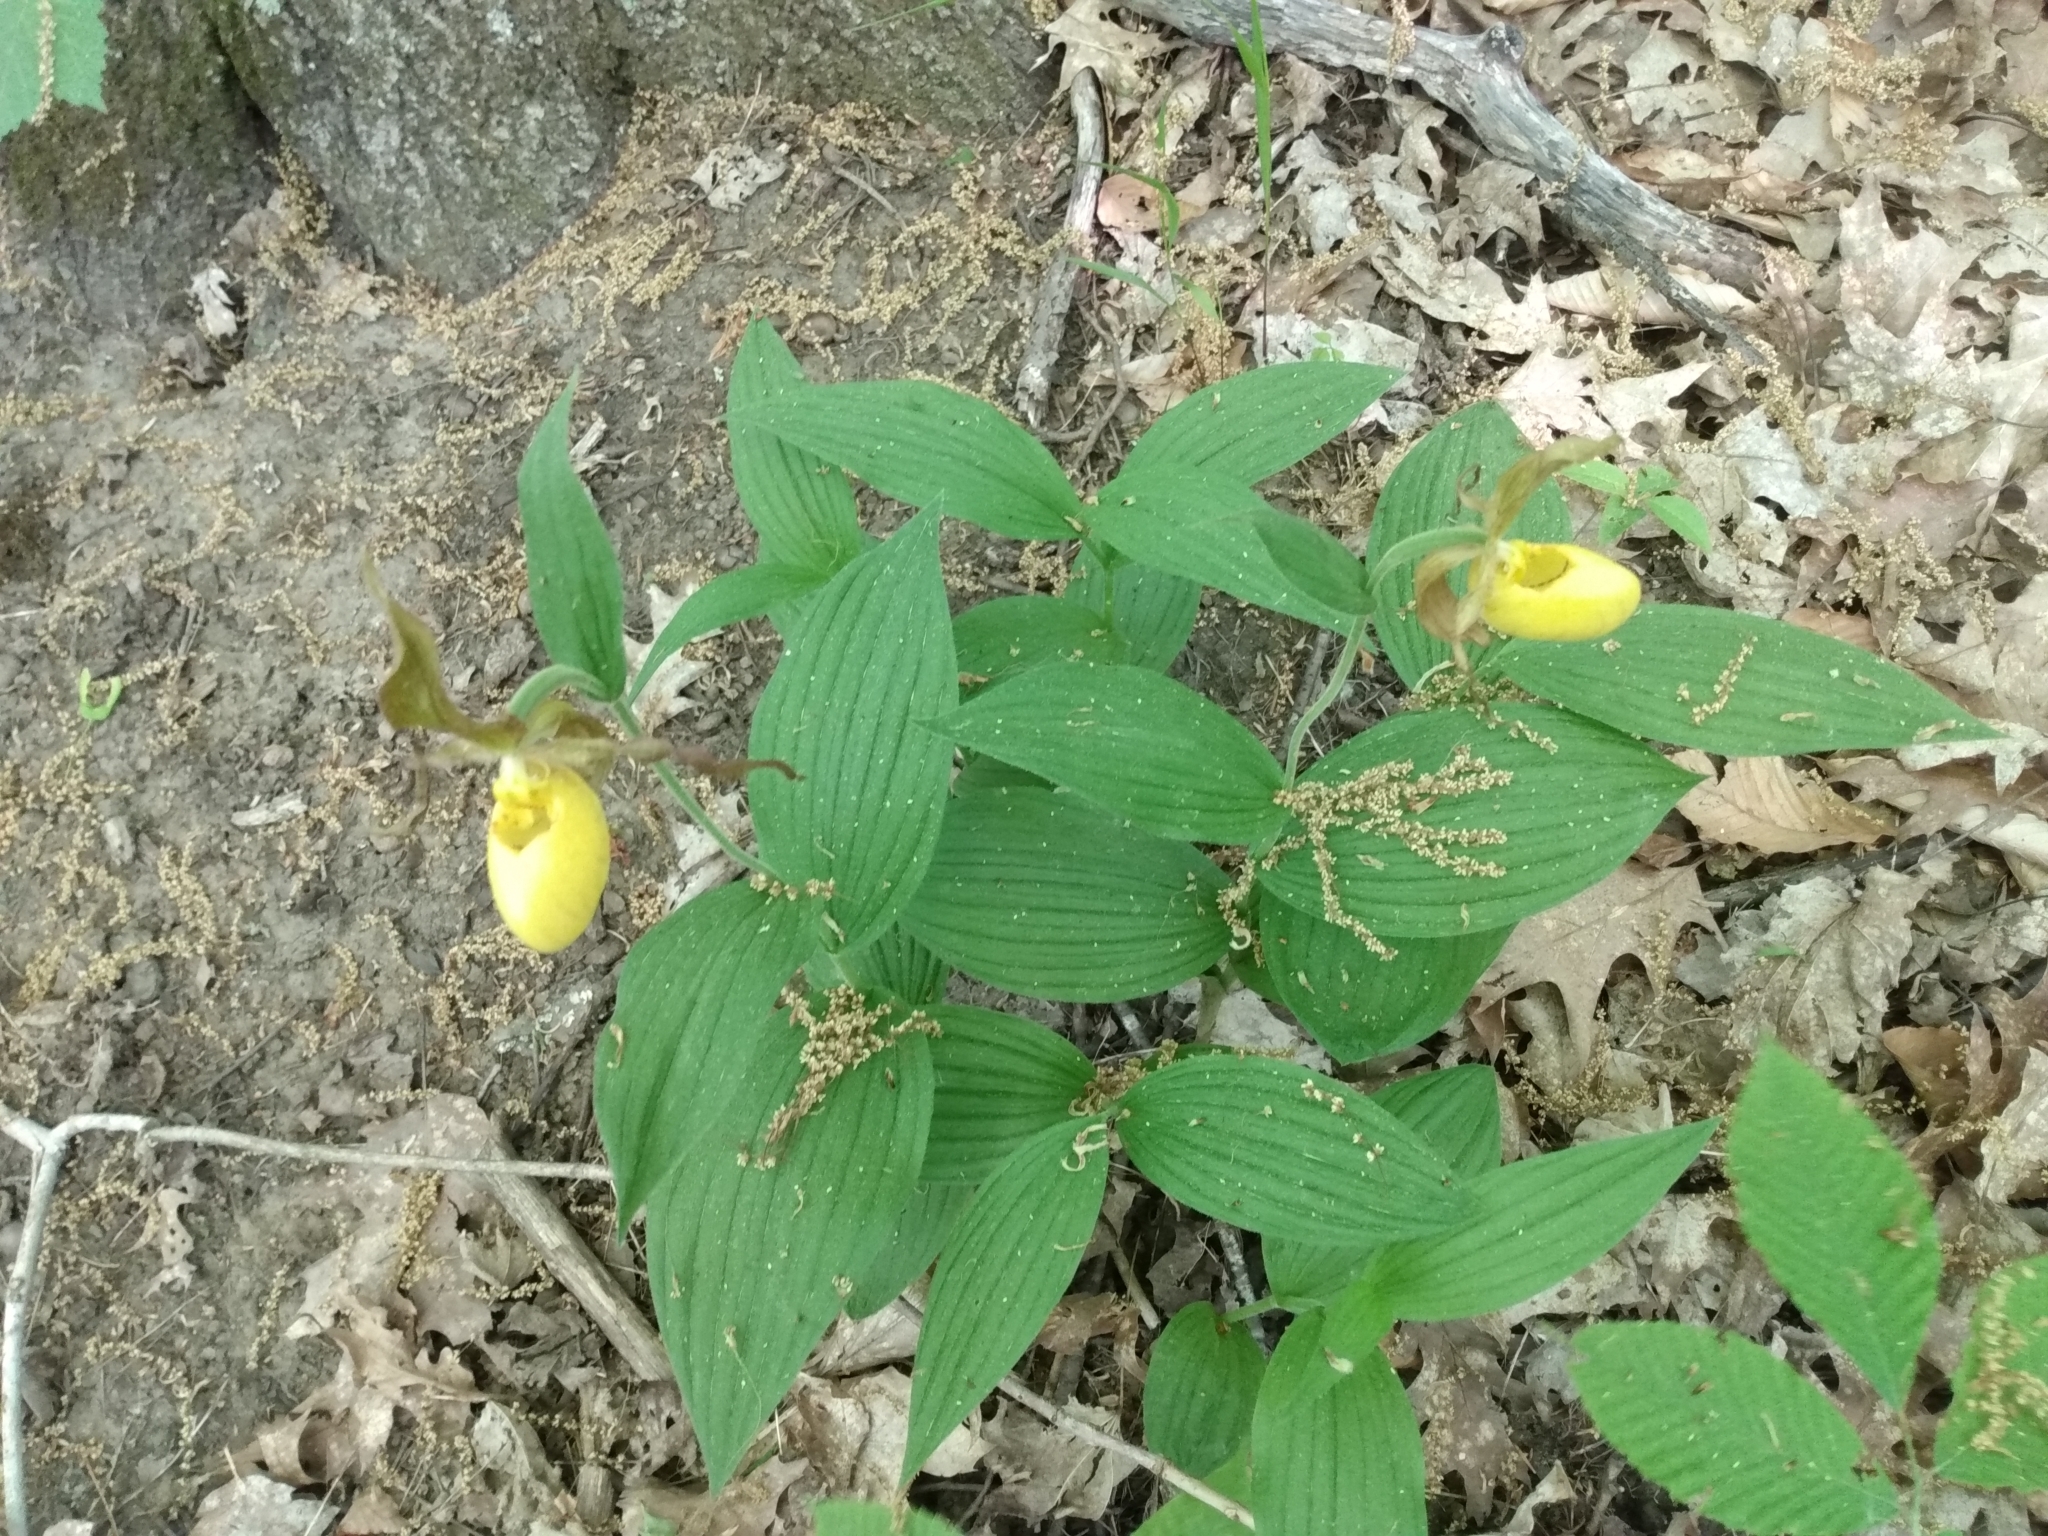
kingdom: Plantae
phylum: Tracheophyta
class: Liliopsida
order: Asparagales
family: Orchidaceae
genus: Cypripedium
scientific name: Cypripedium parviflorum
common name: American yellow lady's-slipper
